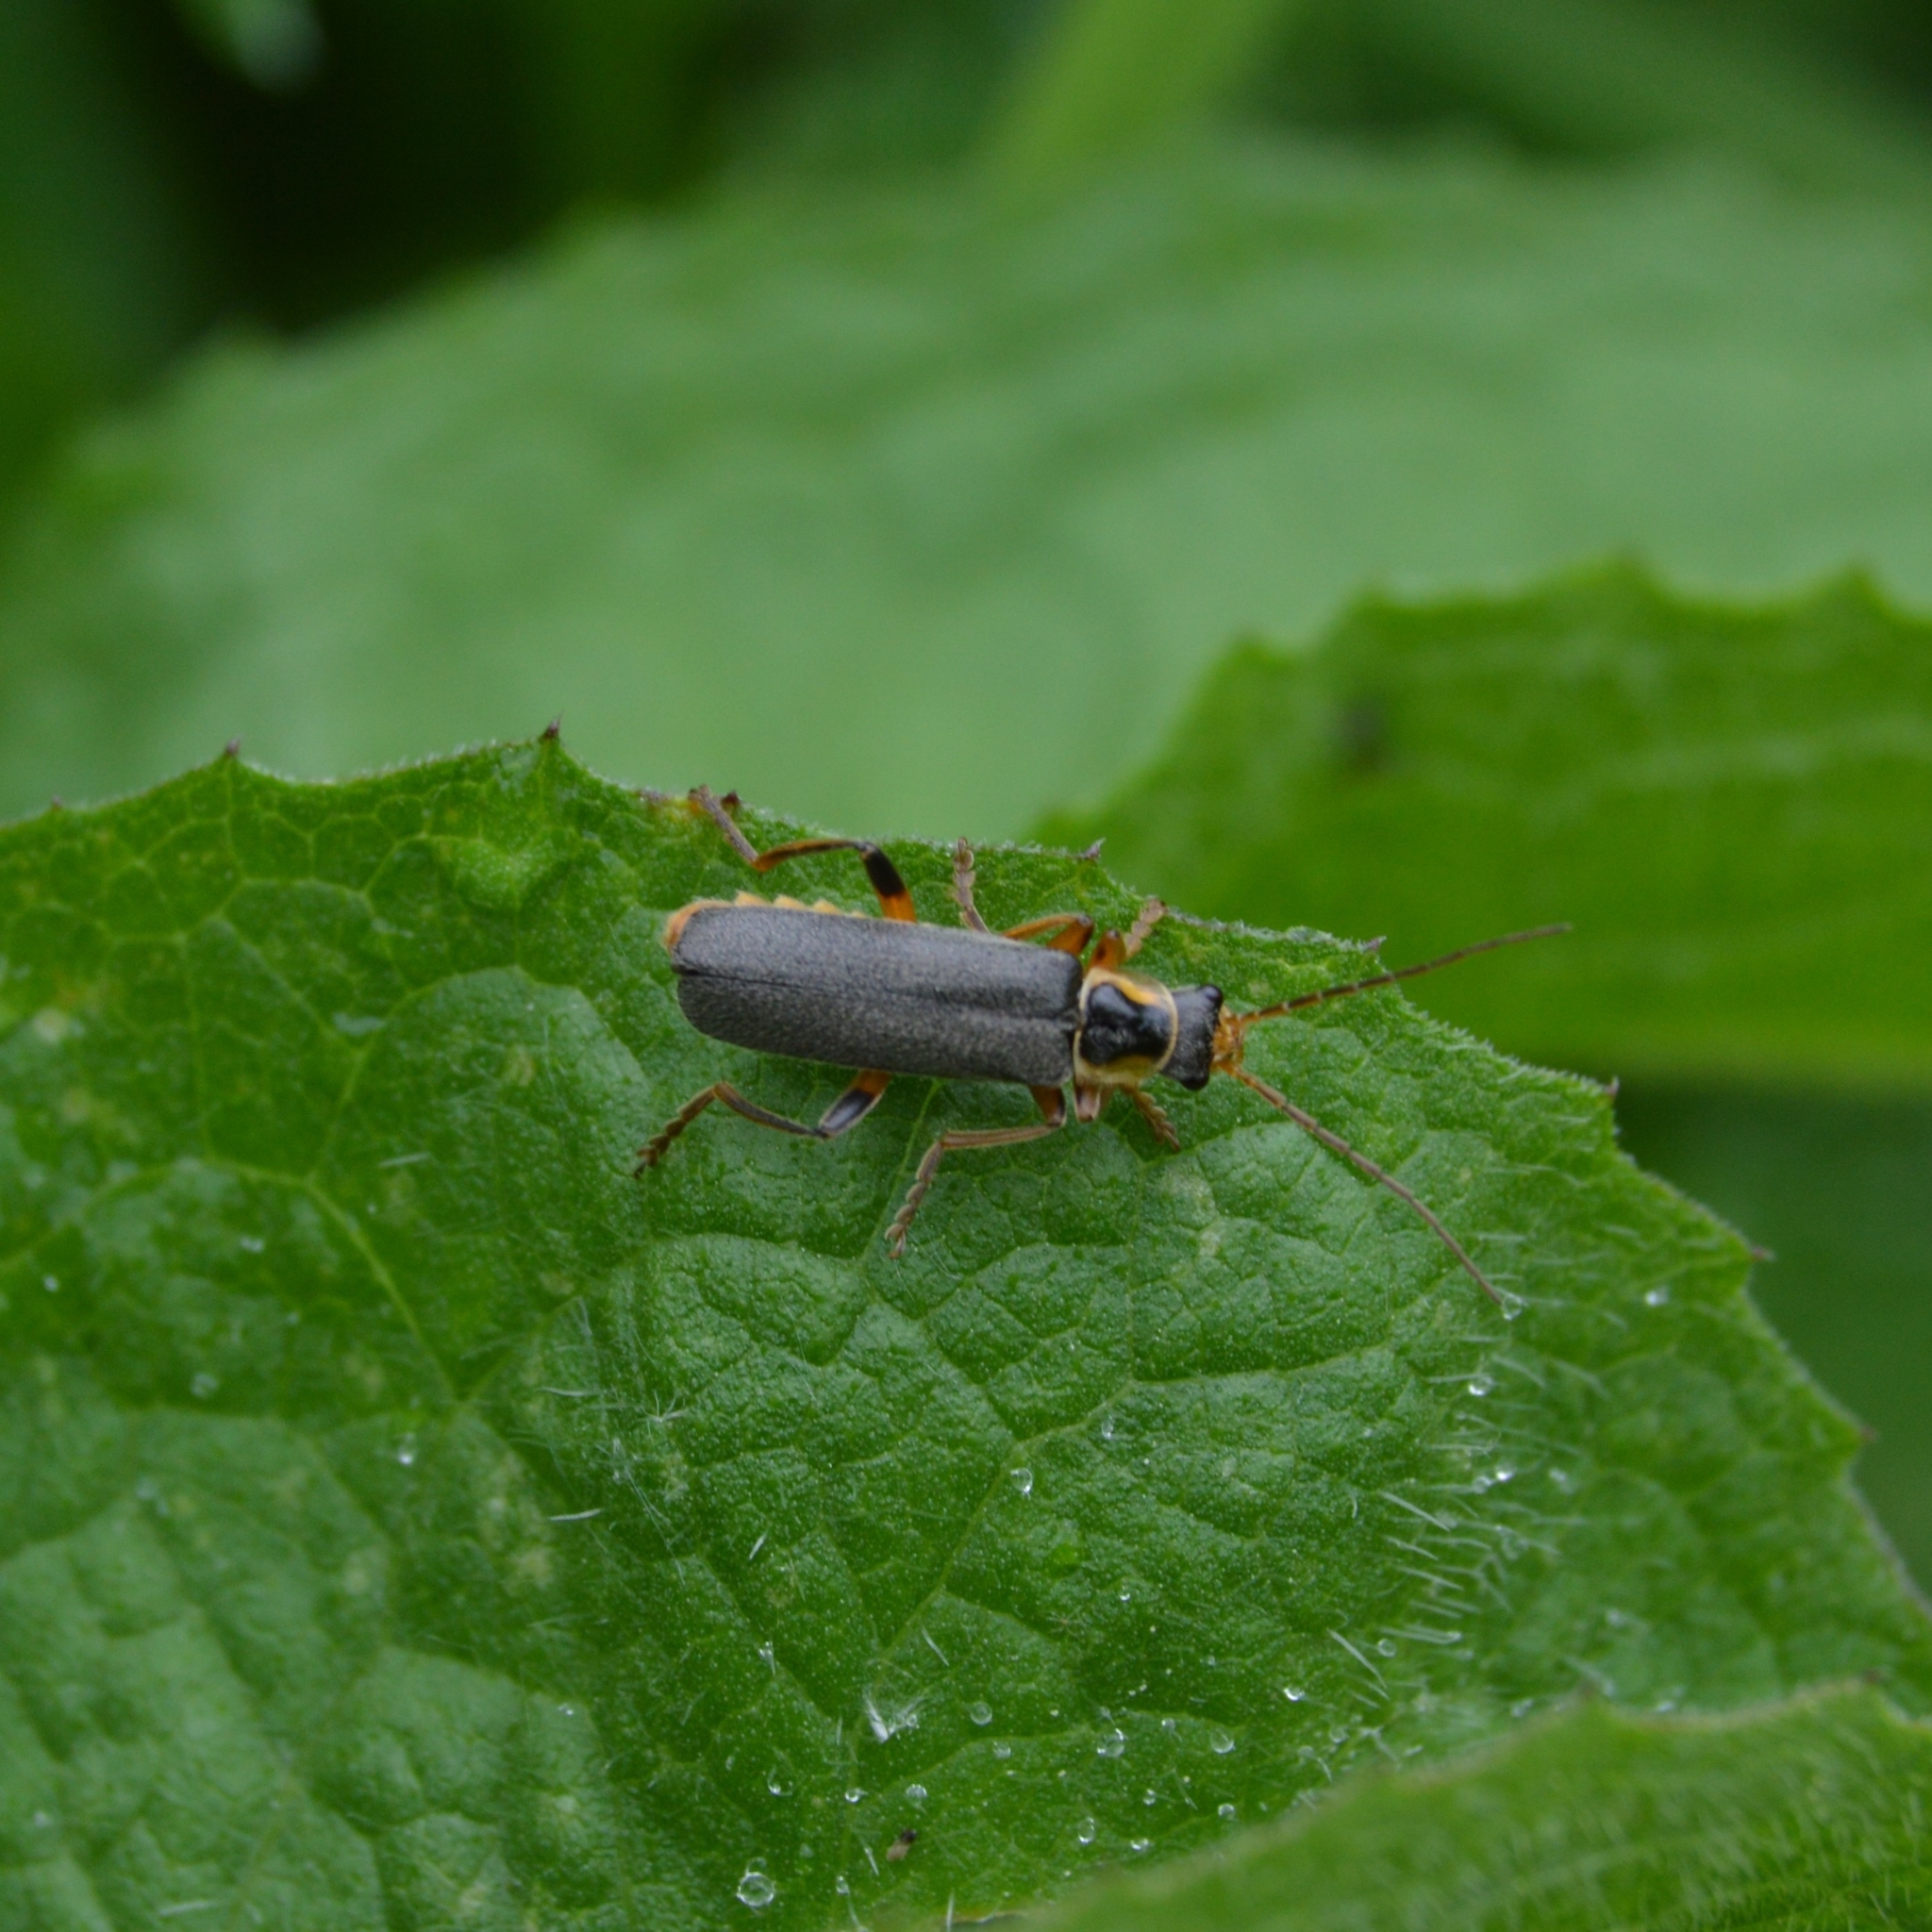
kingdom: Animalia
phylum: Arthropoda
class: Insecta
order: Coleoptera
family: Cantharidae
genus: Cantharis
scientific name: Cantharis nigricans
